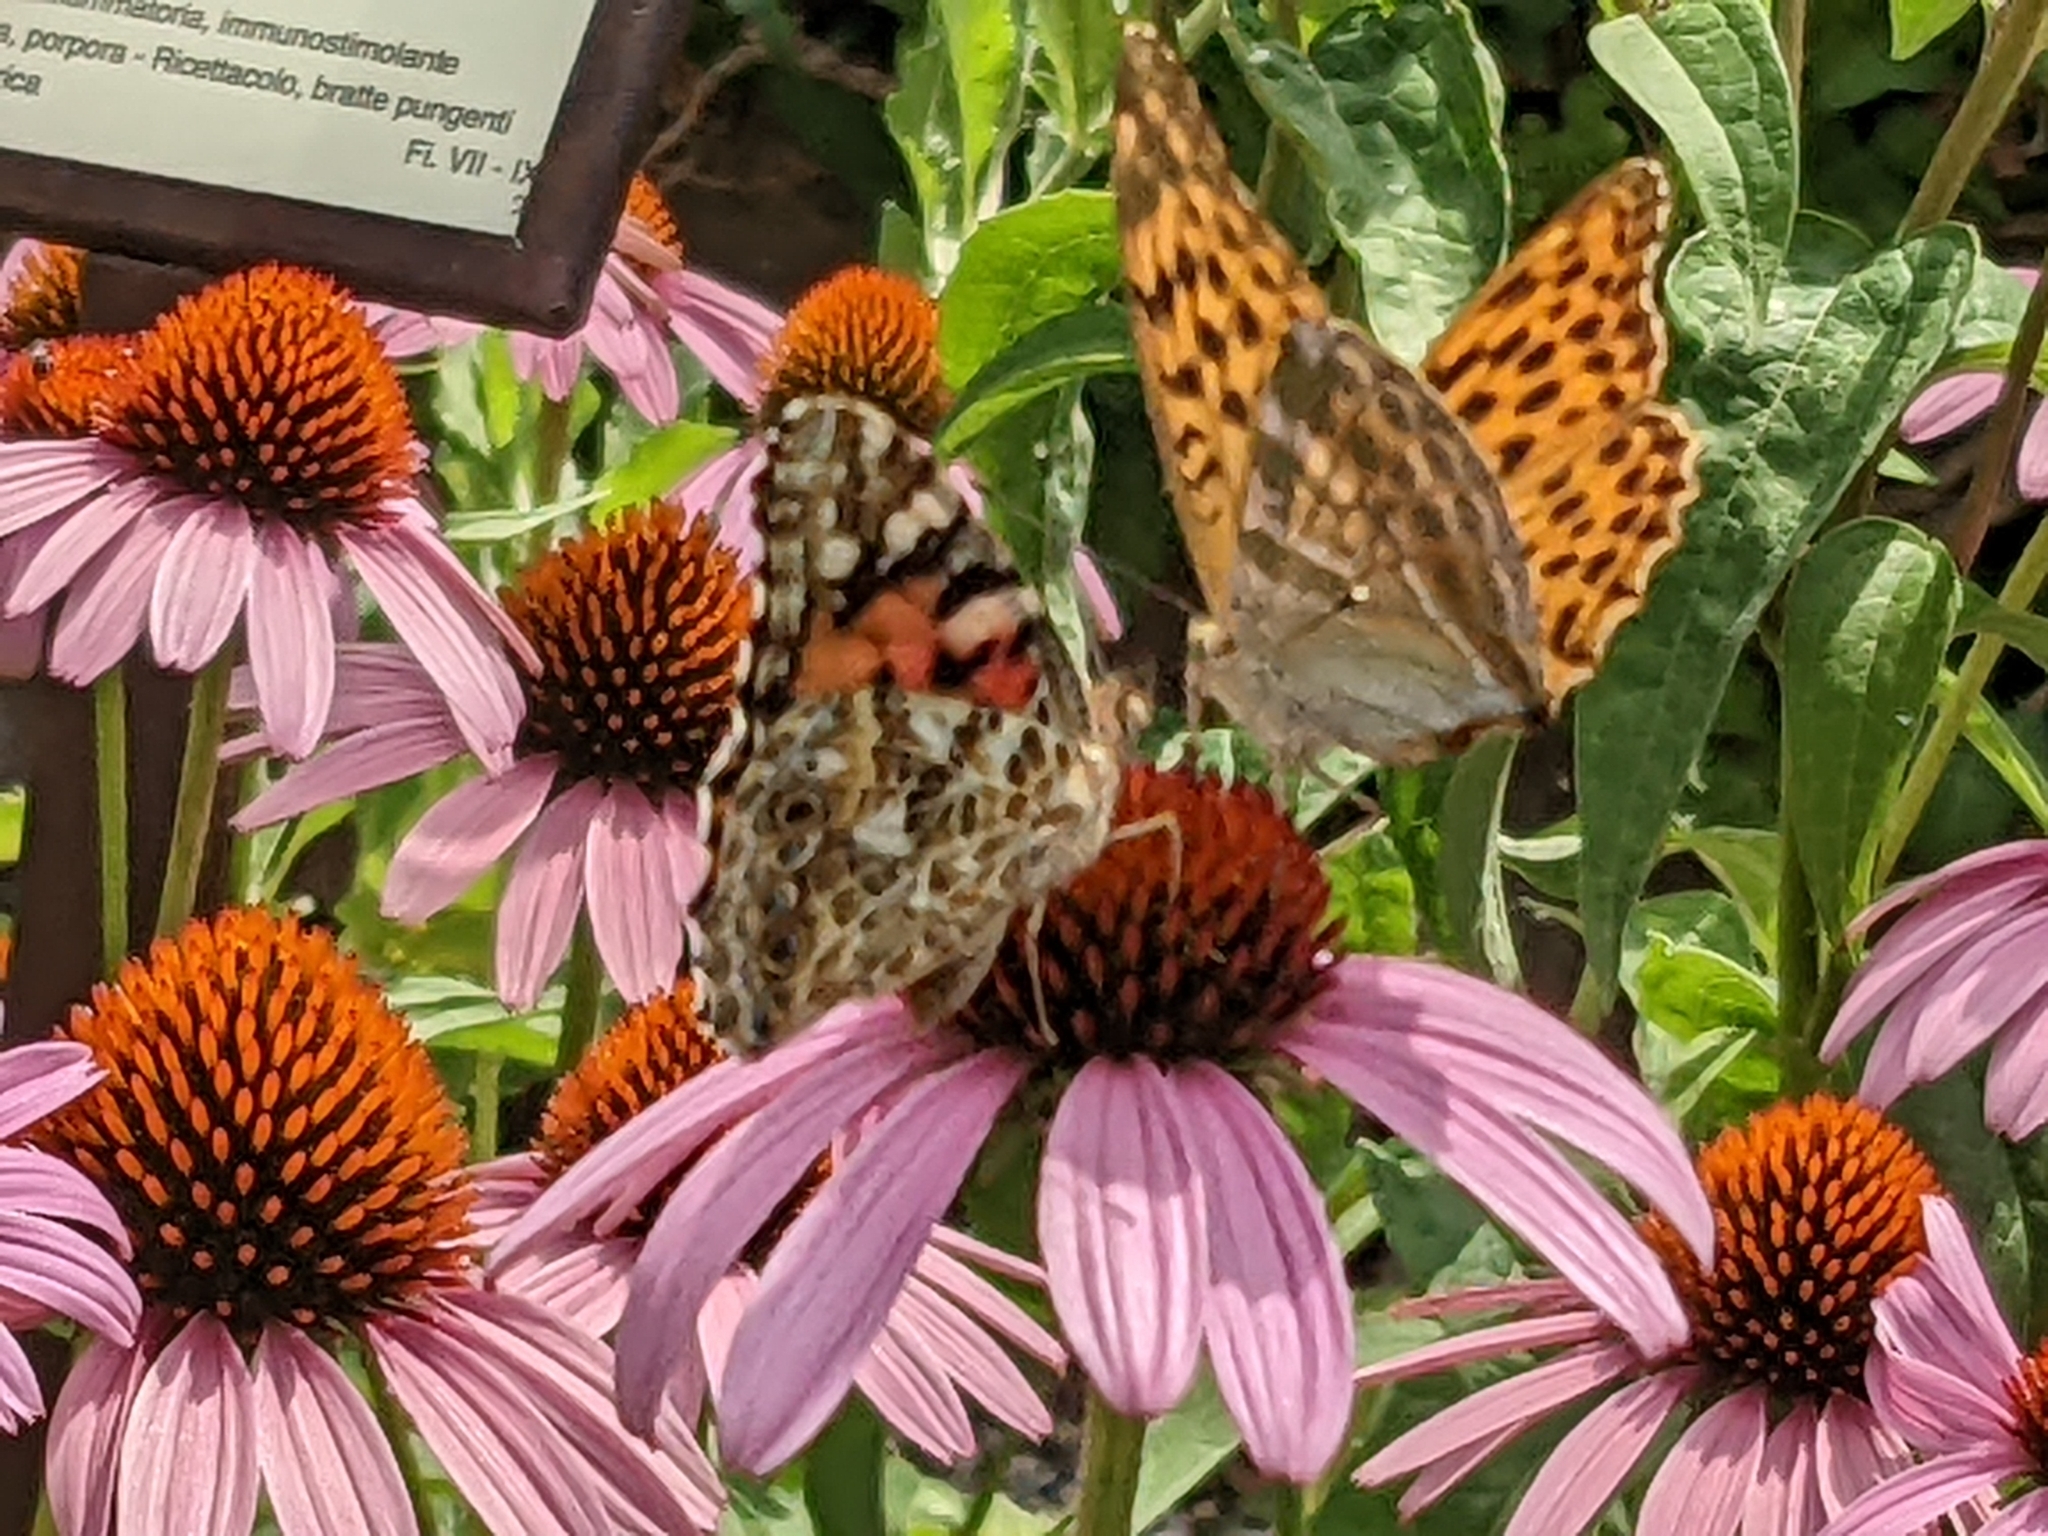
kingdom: Animalia
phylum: Arthropoda
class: Insecta
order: Lepidoptera
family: Nymphalidae
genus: Argynnis
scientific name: Argynnis paphia
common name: Silver-washed fritillary
